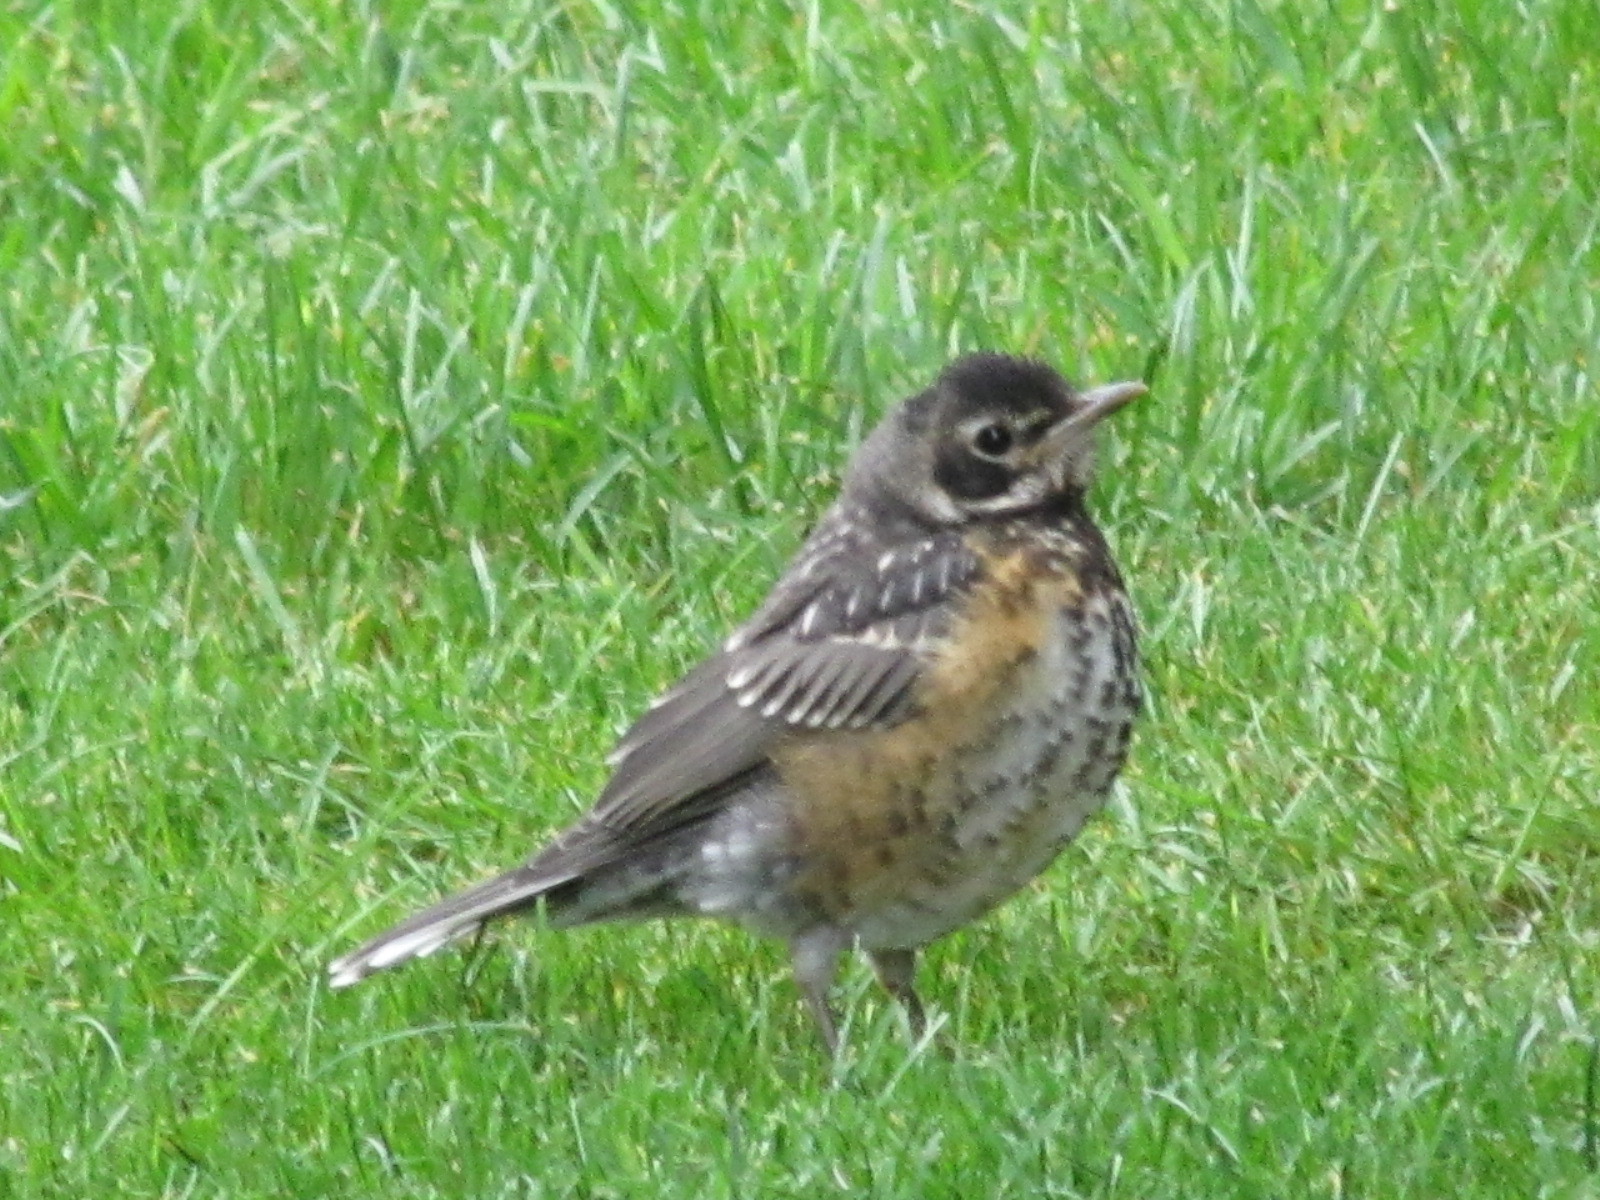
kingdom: Animalia
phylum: Chordata
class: Aves
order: Passeriformes
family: Turdidae
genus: Turdus
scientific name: Turdus migratorius
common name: American robin
